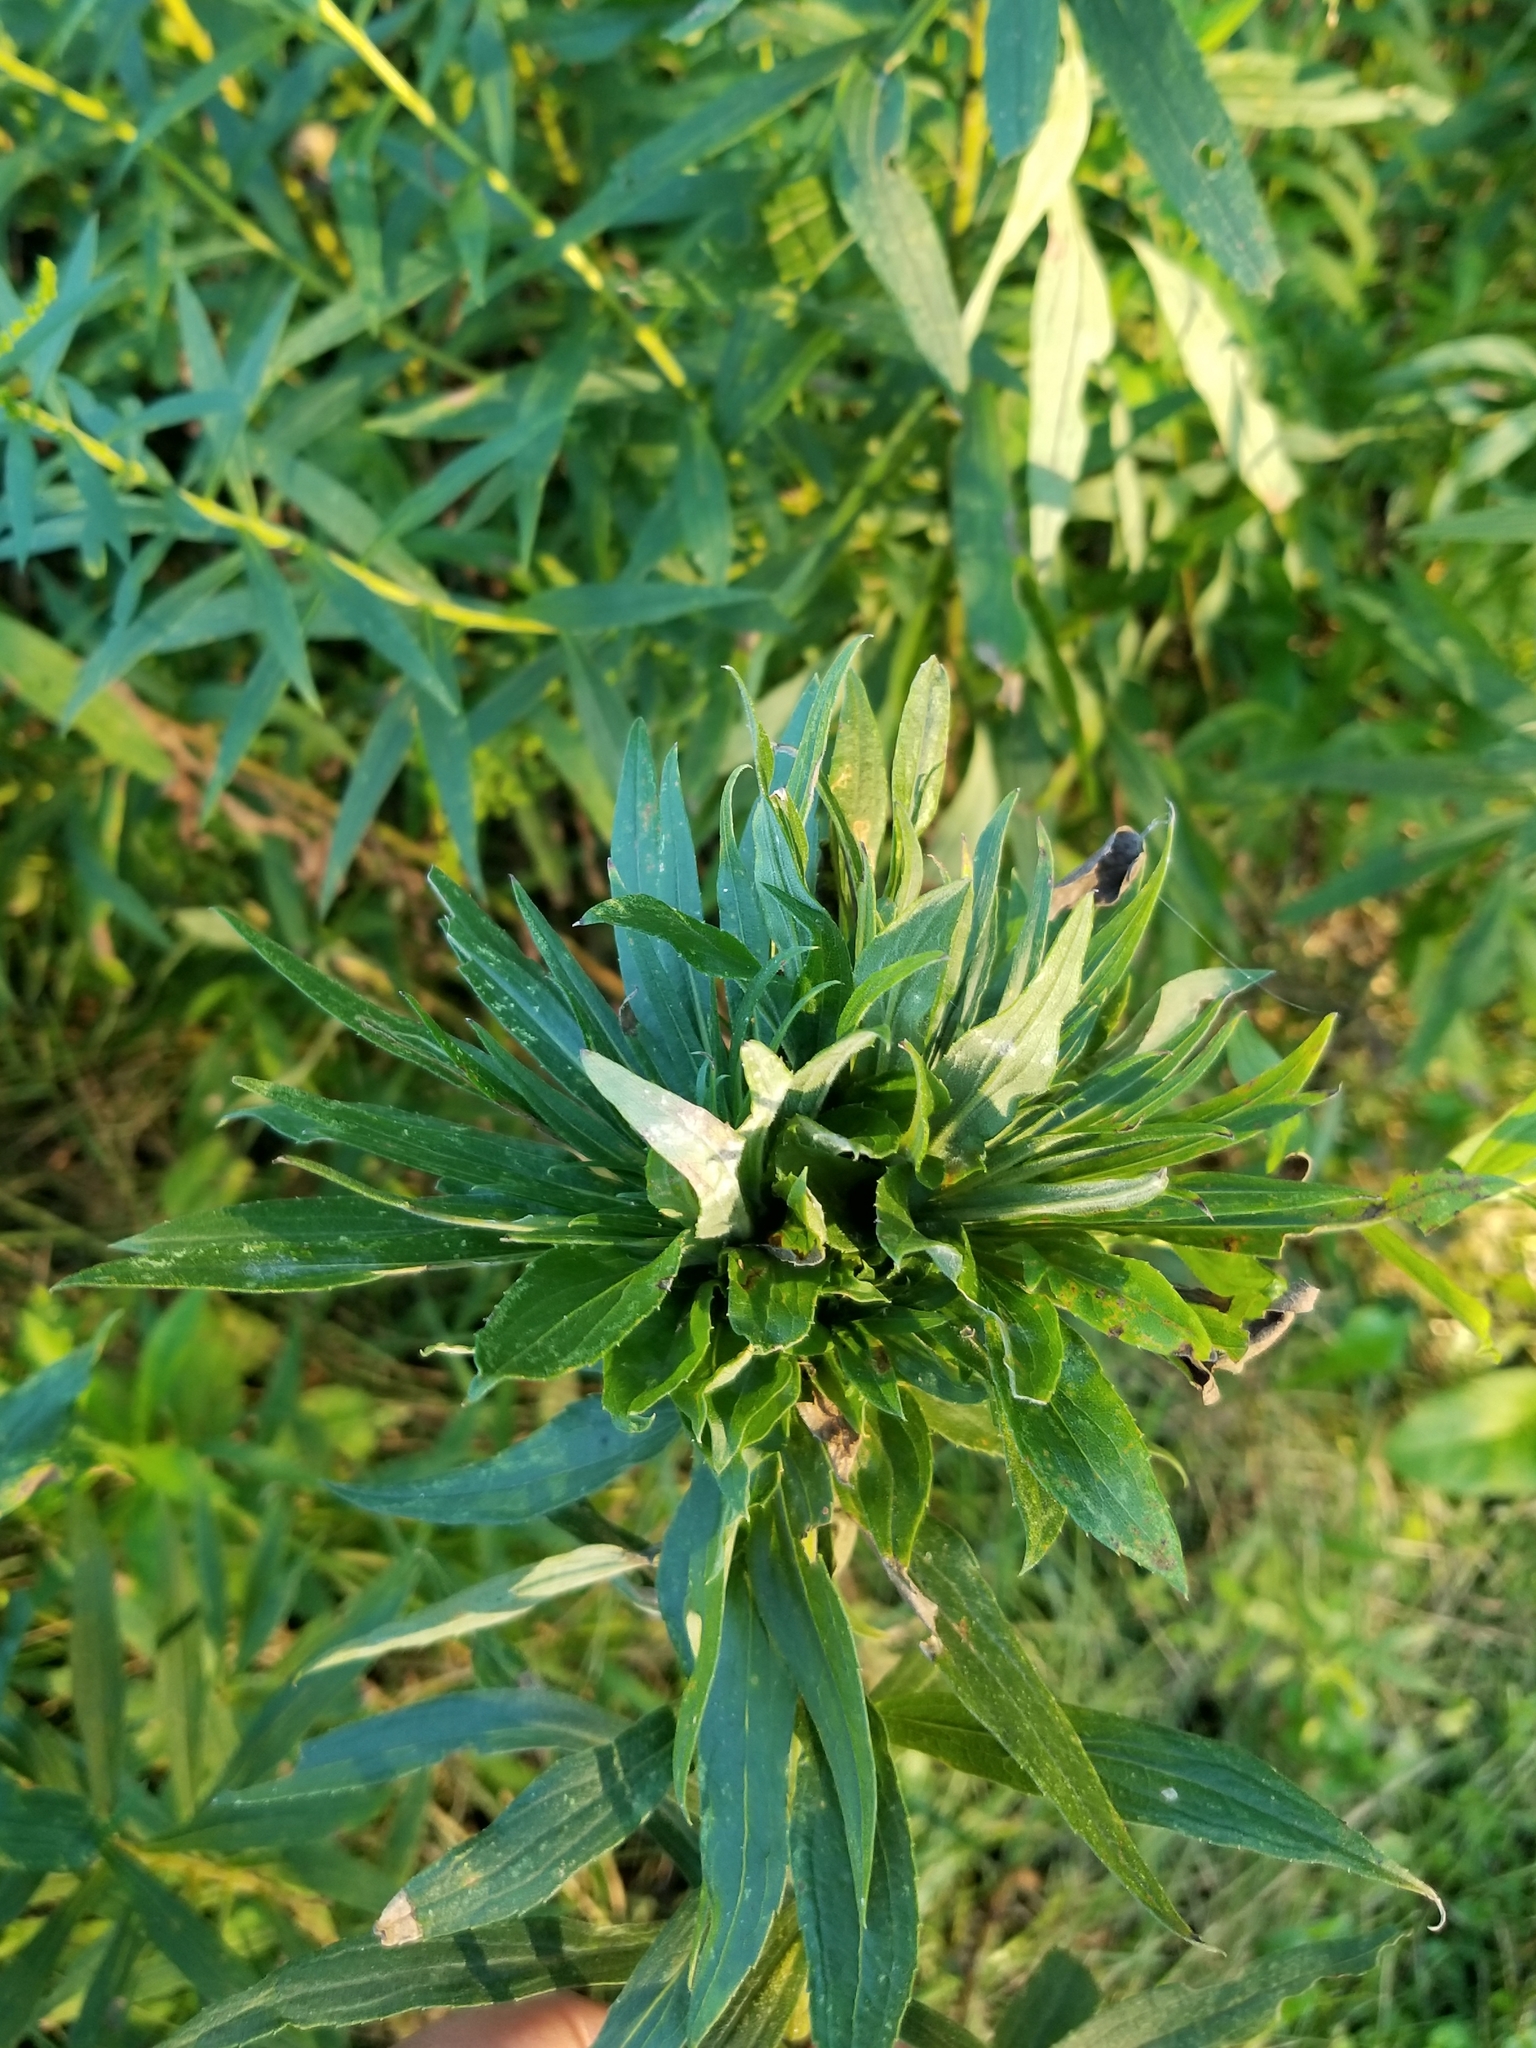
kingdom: Animalia
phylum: Arthropoda
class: Insecta
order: Diptera
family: Cecidomyiidae
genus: Rhopalomyia
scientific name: Rhopalomyia solidaginis
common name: Goldenrod bunch gall midge
